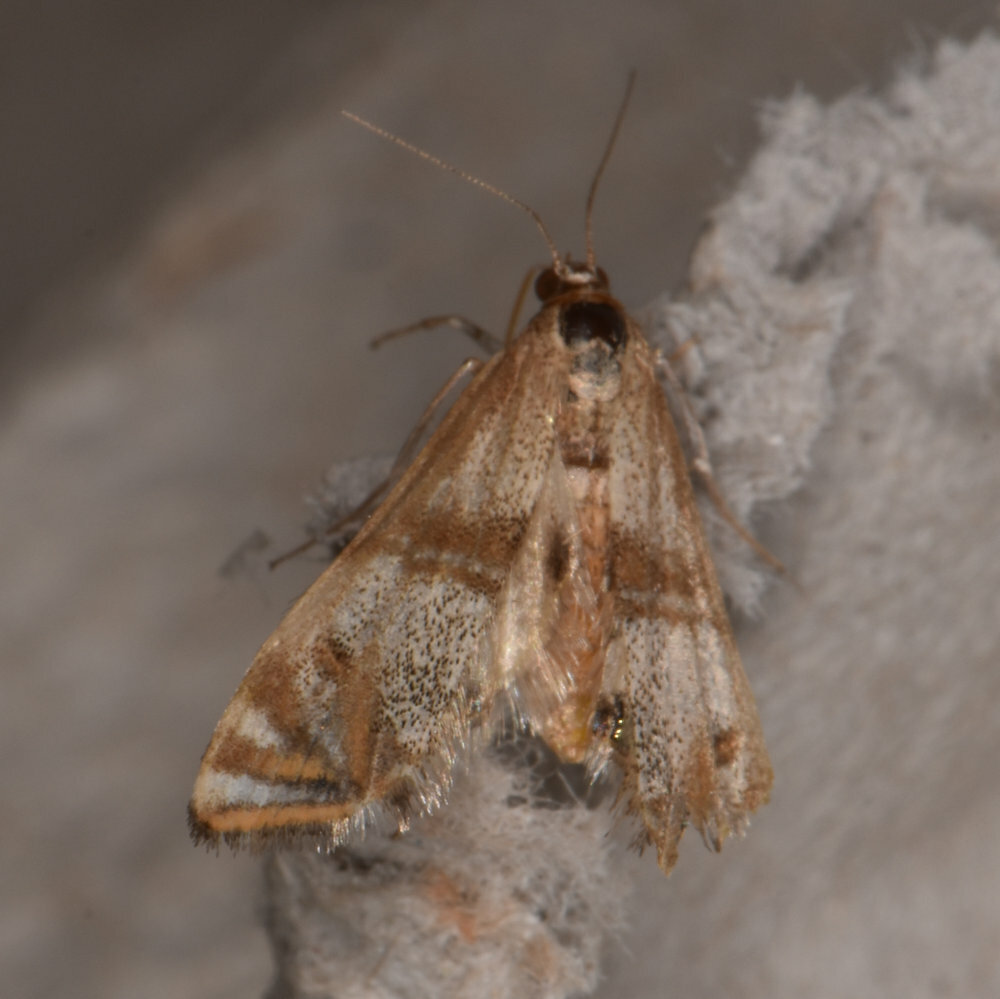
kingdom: Animalia
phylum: Arthropoda
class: Insecta
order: Lepidoptera
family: Crambidae
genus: Petrophila
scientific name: Petrophila bifascialis
